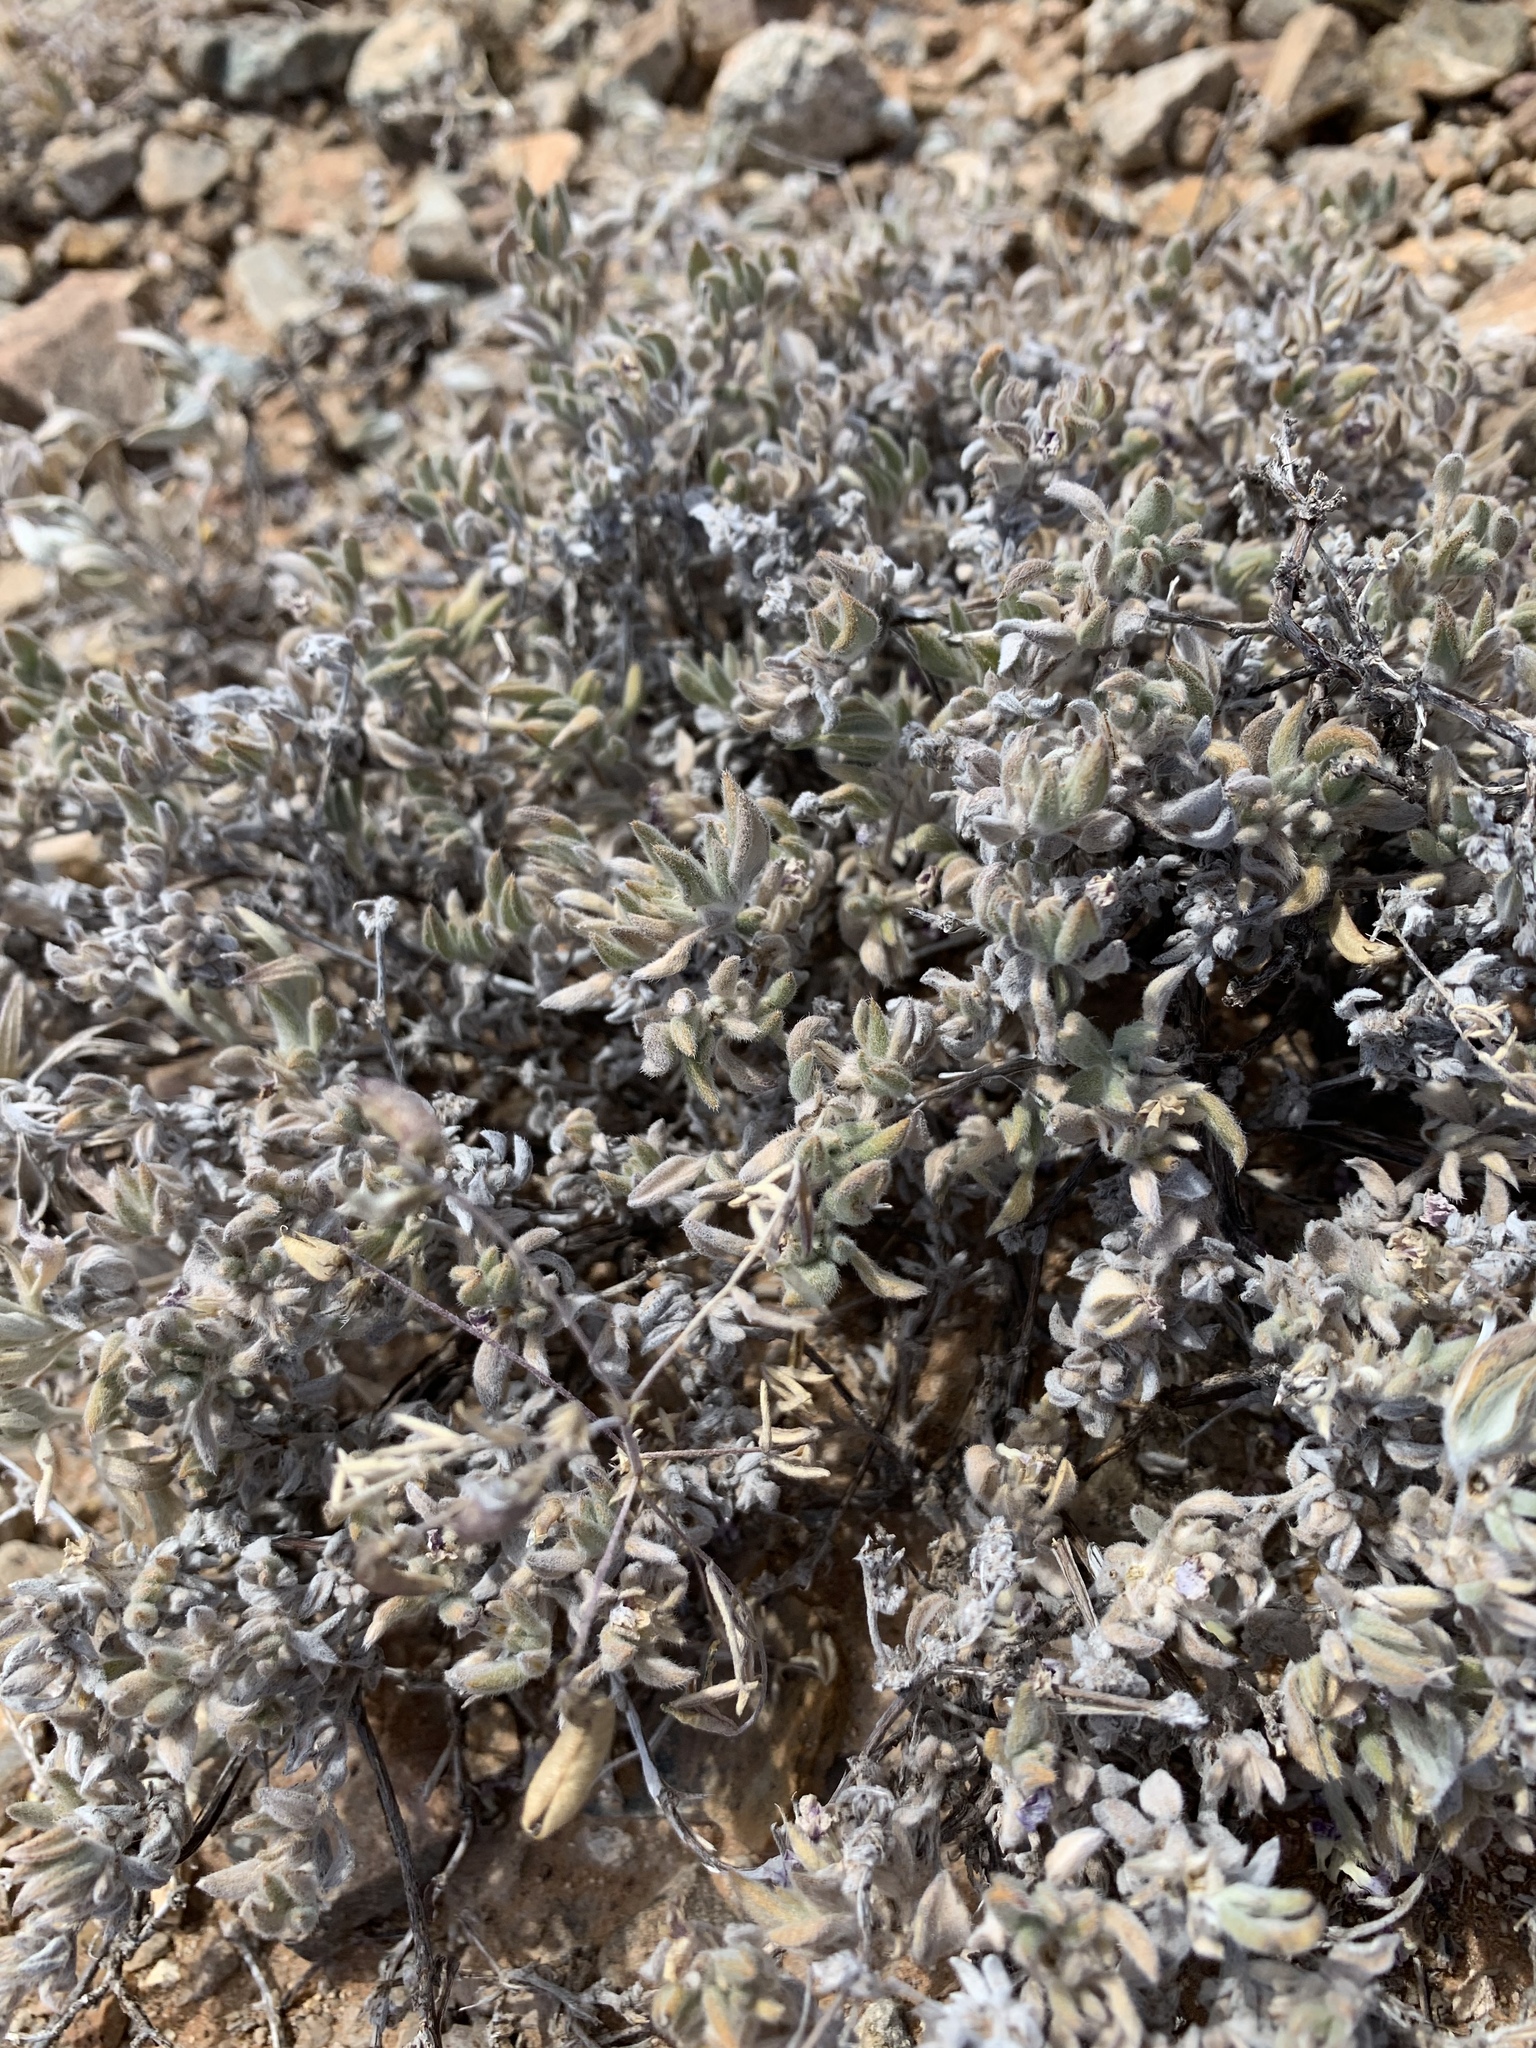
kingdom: Plantae
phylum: Tracheophyta
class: Magnoliopsida
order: Boraginales
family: Ehretiaceae
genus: Tiquilia
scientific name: Tiquilia canescens
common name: Hairy tiquilia
